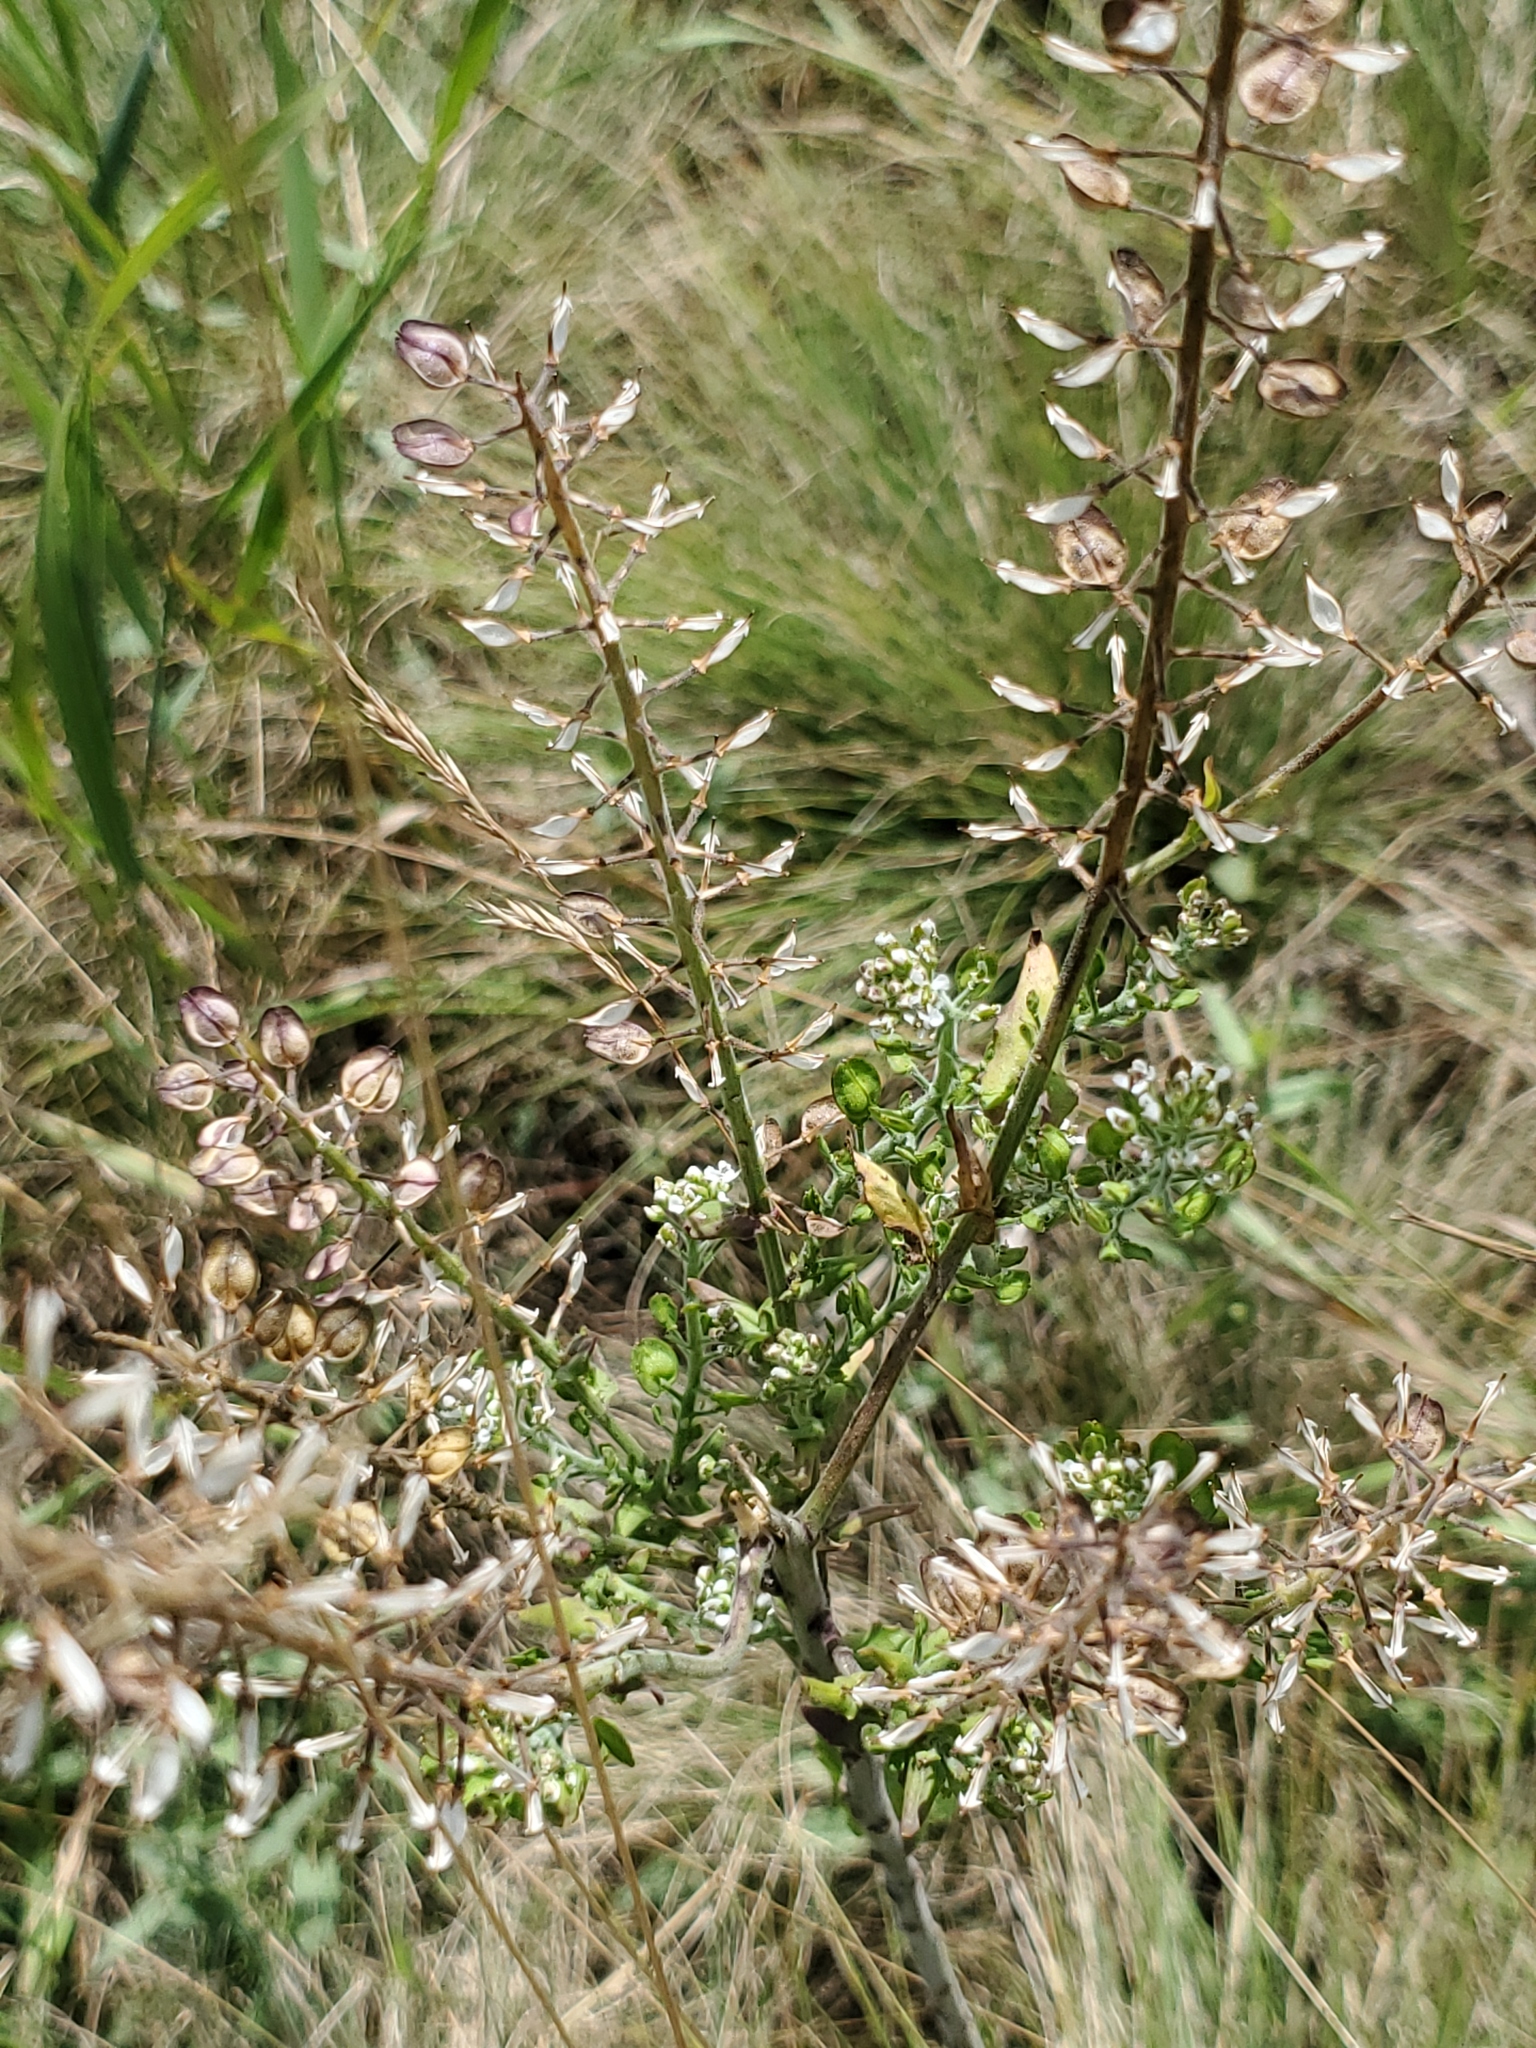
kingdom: Plantae
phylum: Tracheophyta
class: Magnoliopsida
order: Brassicales
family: Brassicaceae
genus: Lepidium
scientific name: Lepidium campestre
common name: Field pepperwort
